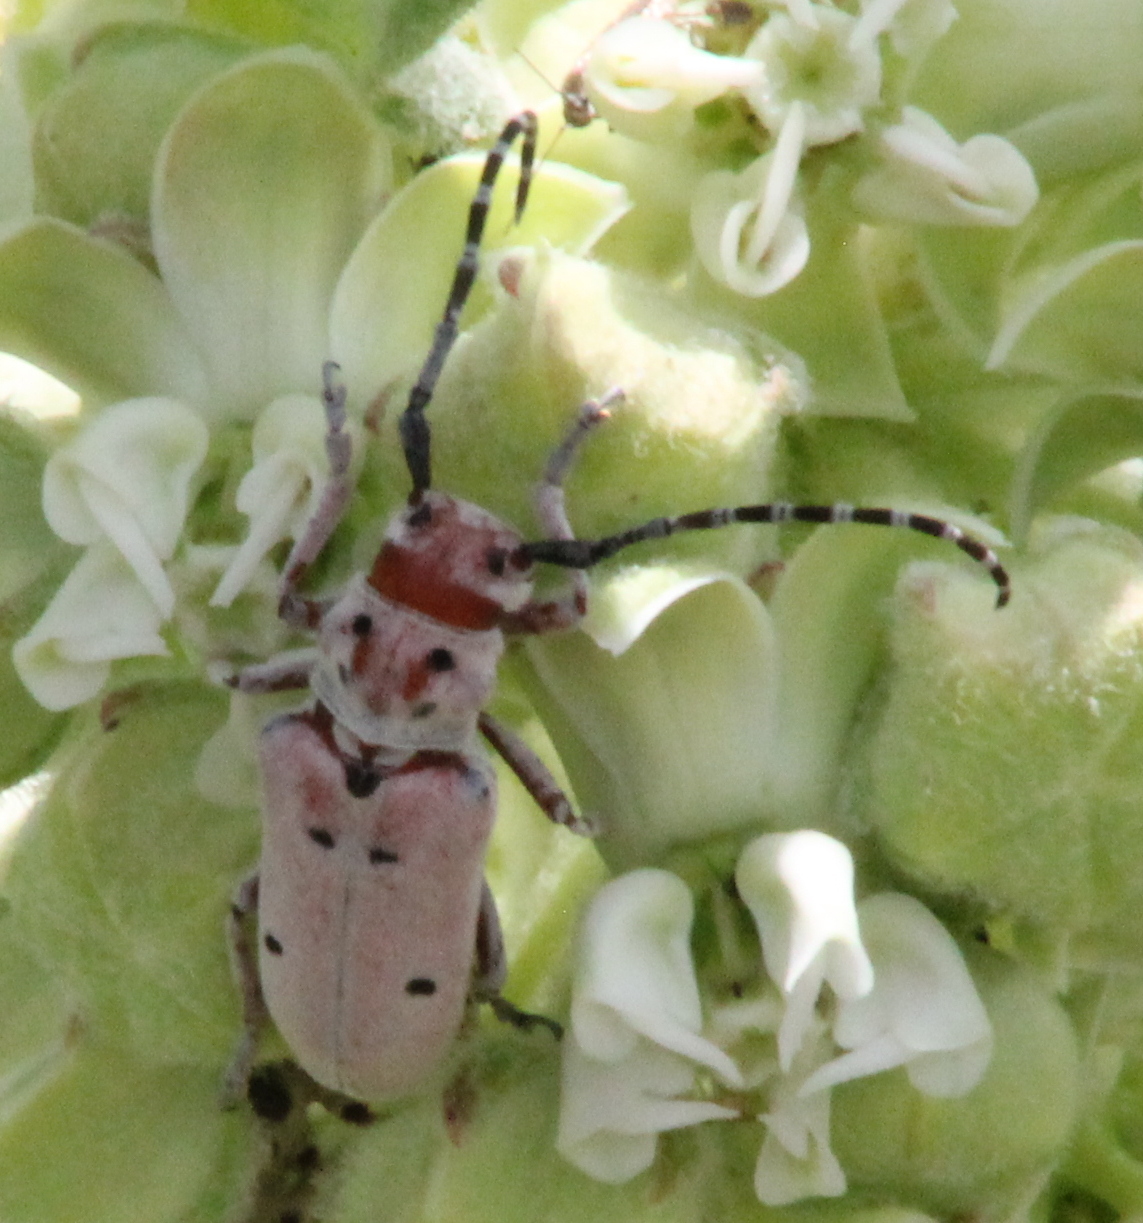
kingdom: Animalia
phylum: Arthropoda
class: Insecta
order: Coleoptera
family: Cerambycidae
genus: Tetraopes
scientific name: Tetraopes annulatus
